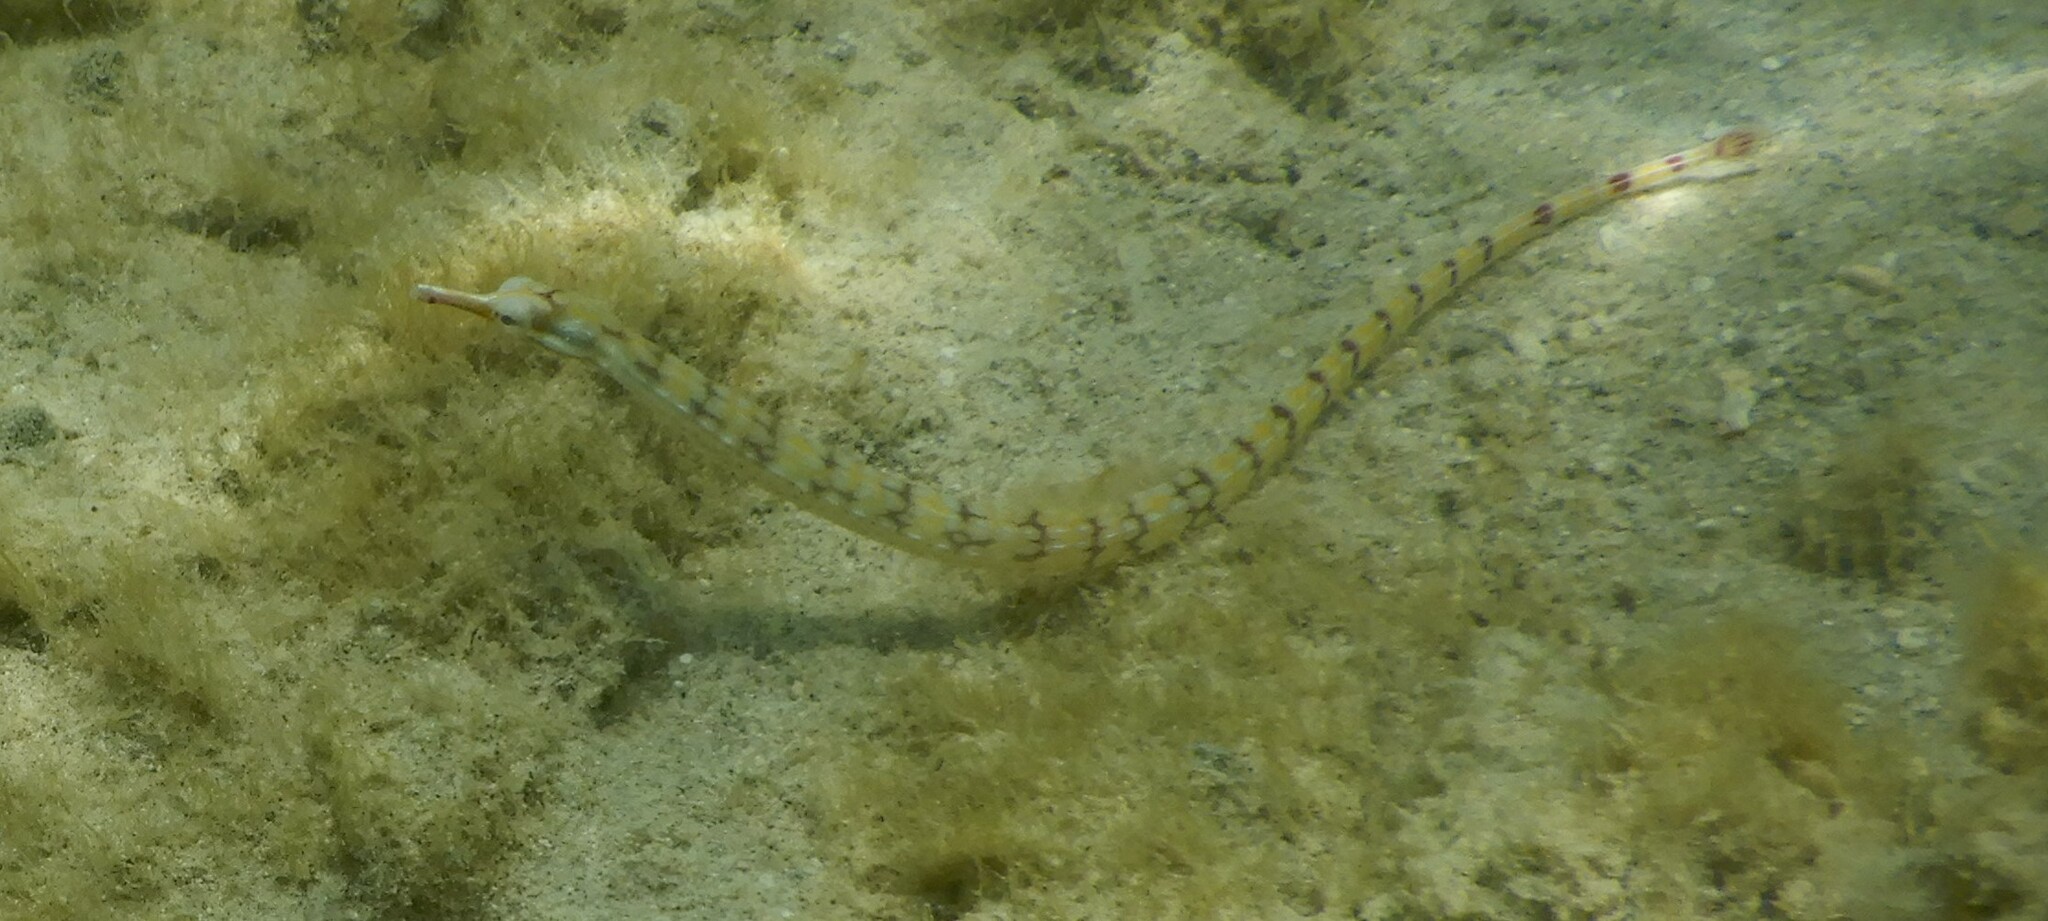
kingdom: Animalia
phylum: Chordata
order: Syngnathiformes
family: Syngnathidae
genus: Corythoichthys
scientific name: Corythoichthys flavofasciatus
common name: Banded pipefish
